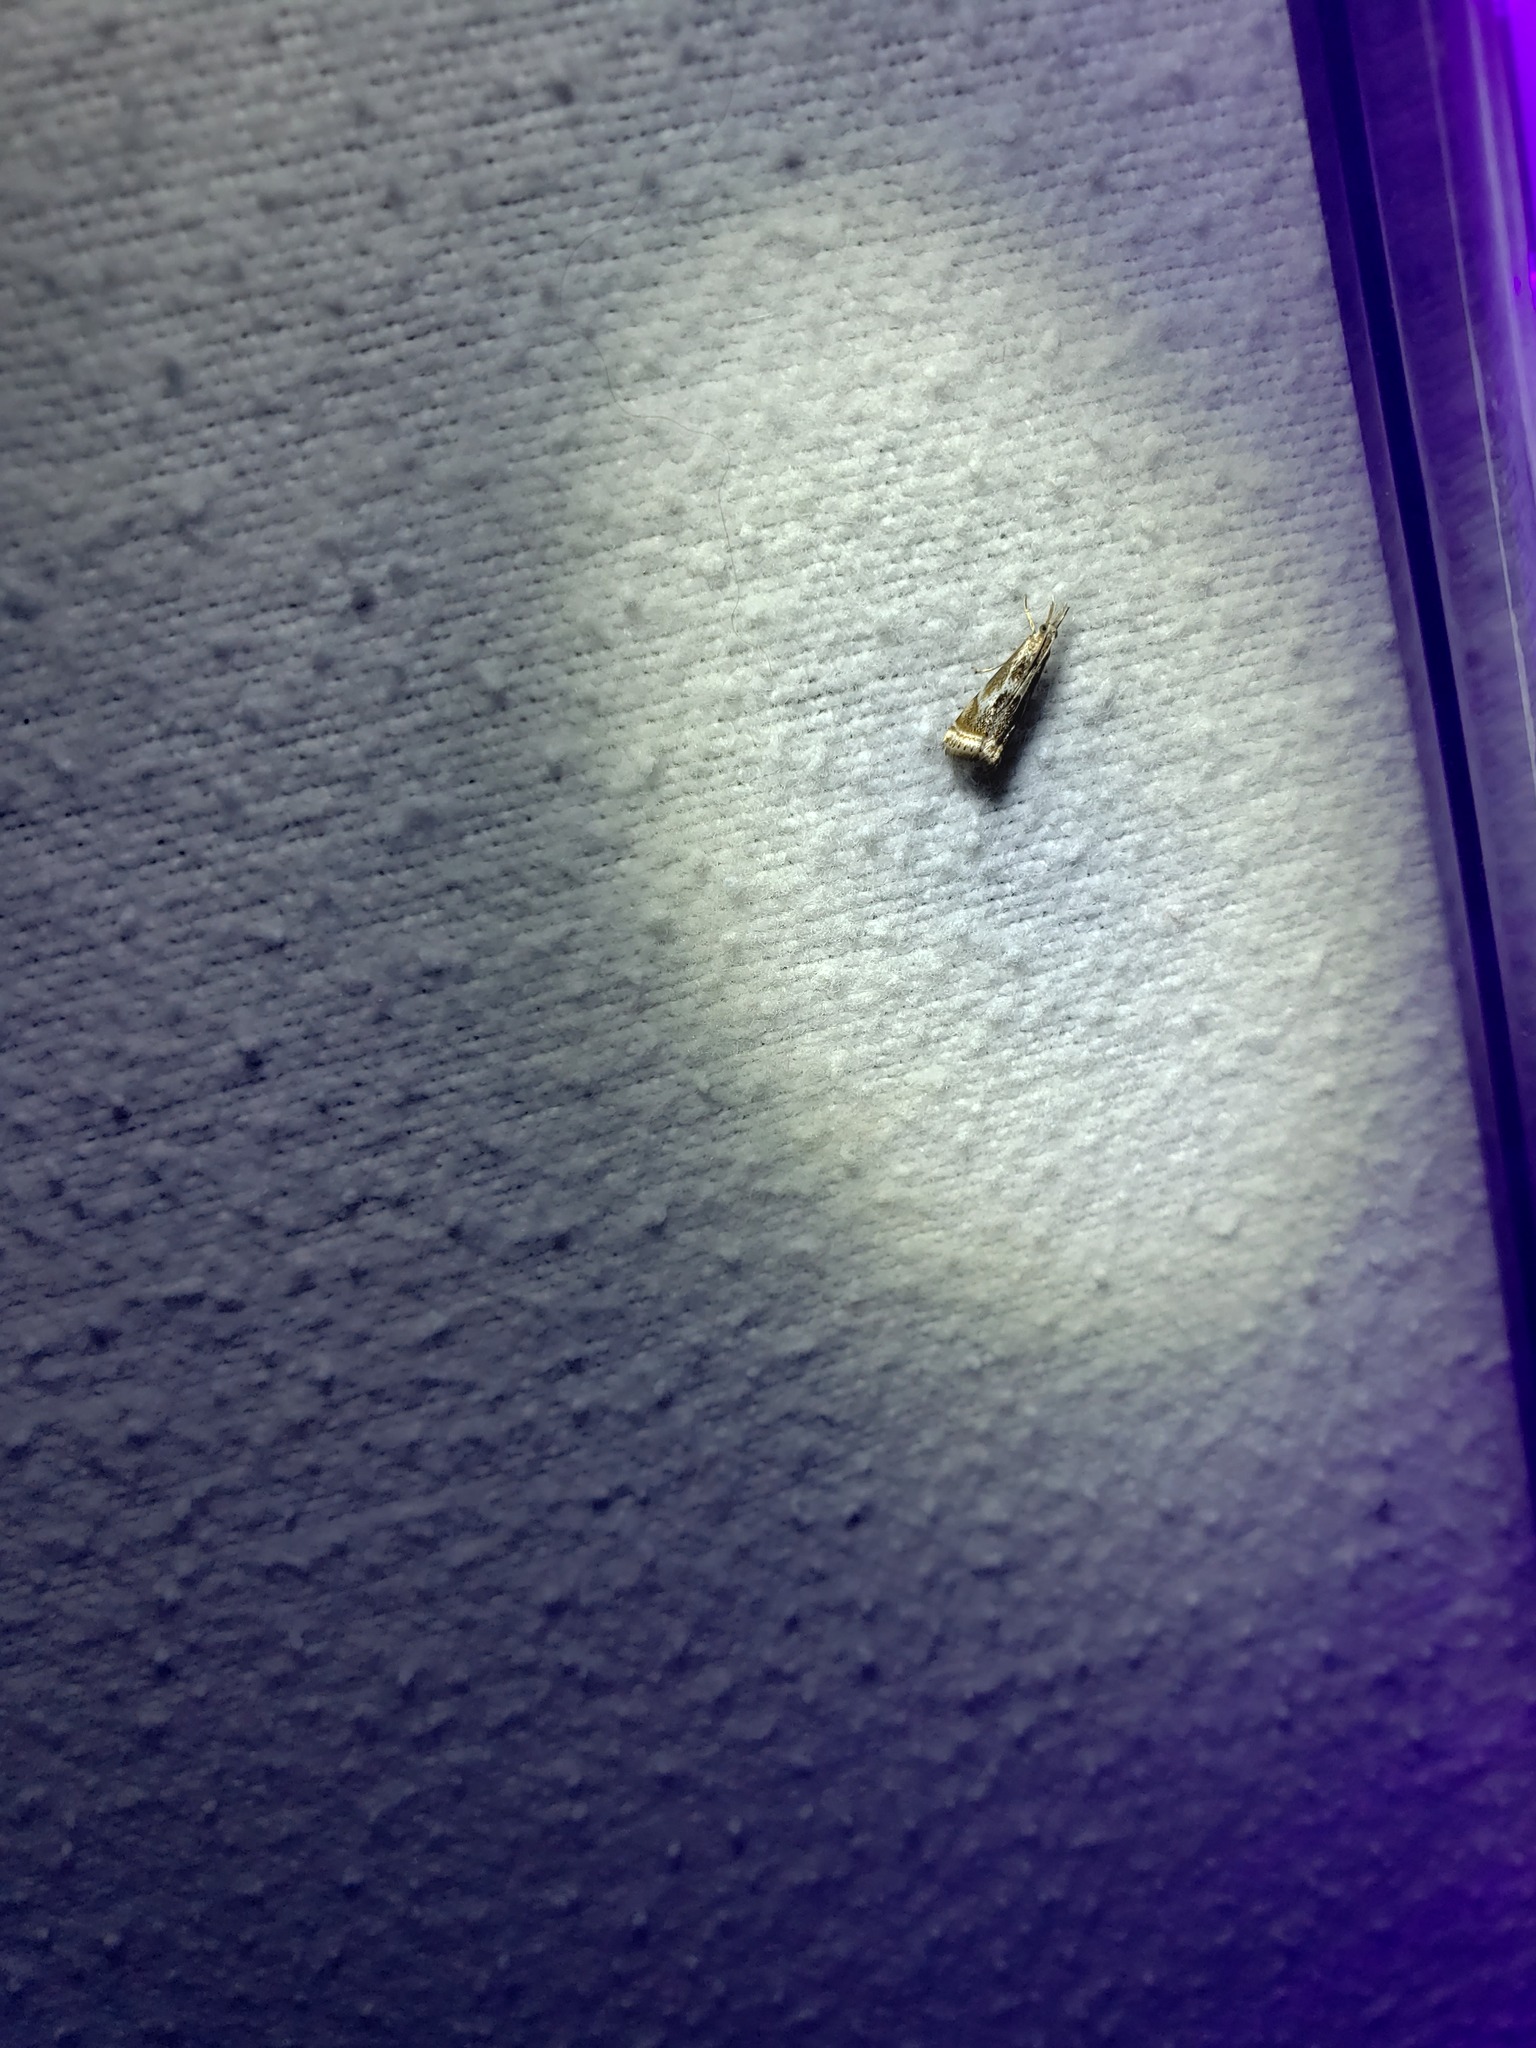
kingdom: Animalia
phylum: Arthropoda
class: Insecta
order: Lepidoptera
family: Crambidae
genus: Microcrambus
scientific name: Microcrambus elegans
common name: Elegant grass-veneer
